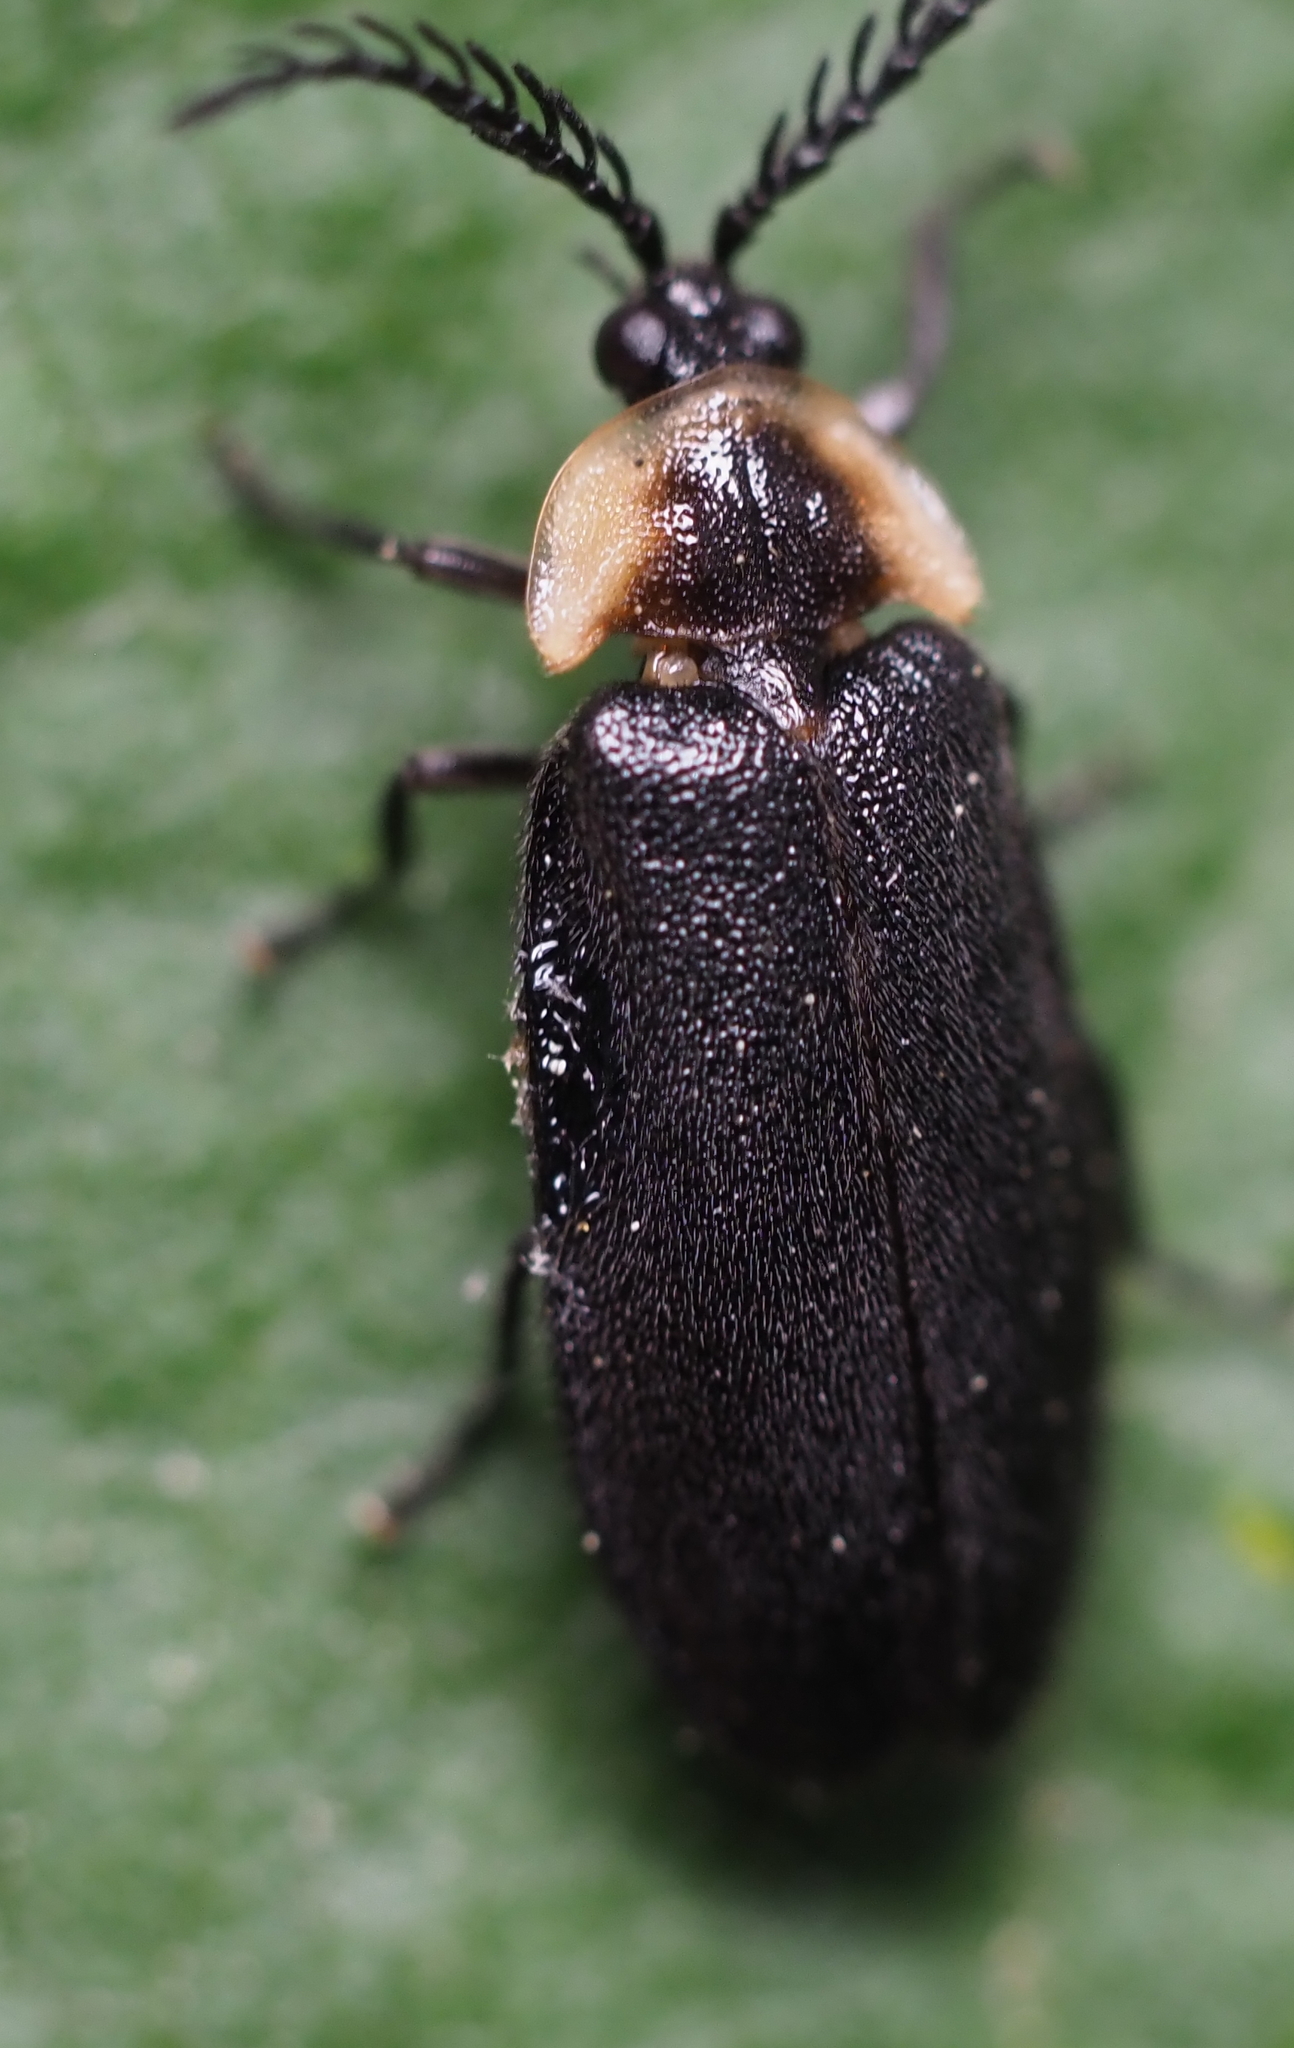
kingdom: Animalia
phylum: Arthropoda
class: Insecta
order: Coleoptera
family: Lampyridae
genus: Pollaclasis
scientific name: Pollaclasis bifaria
